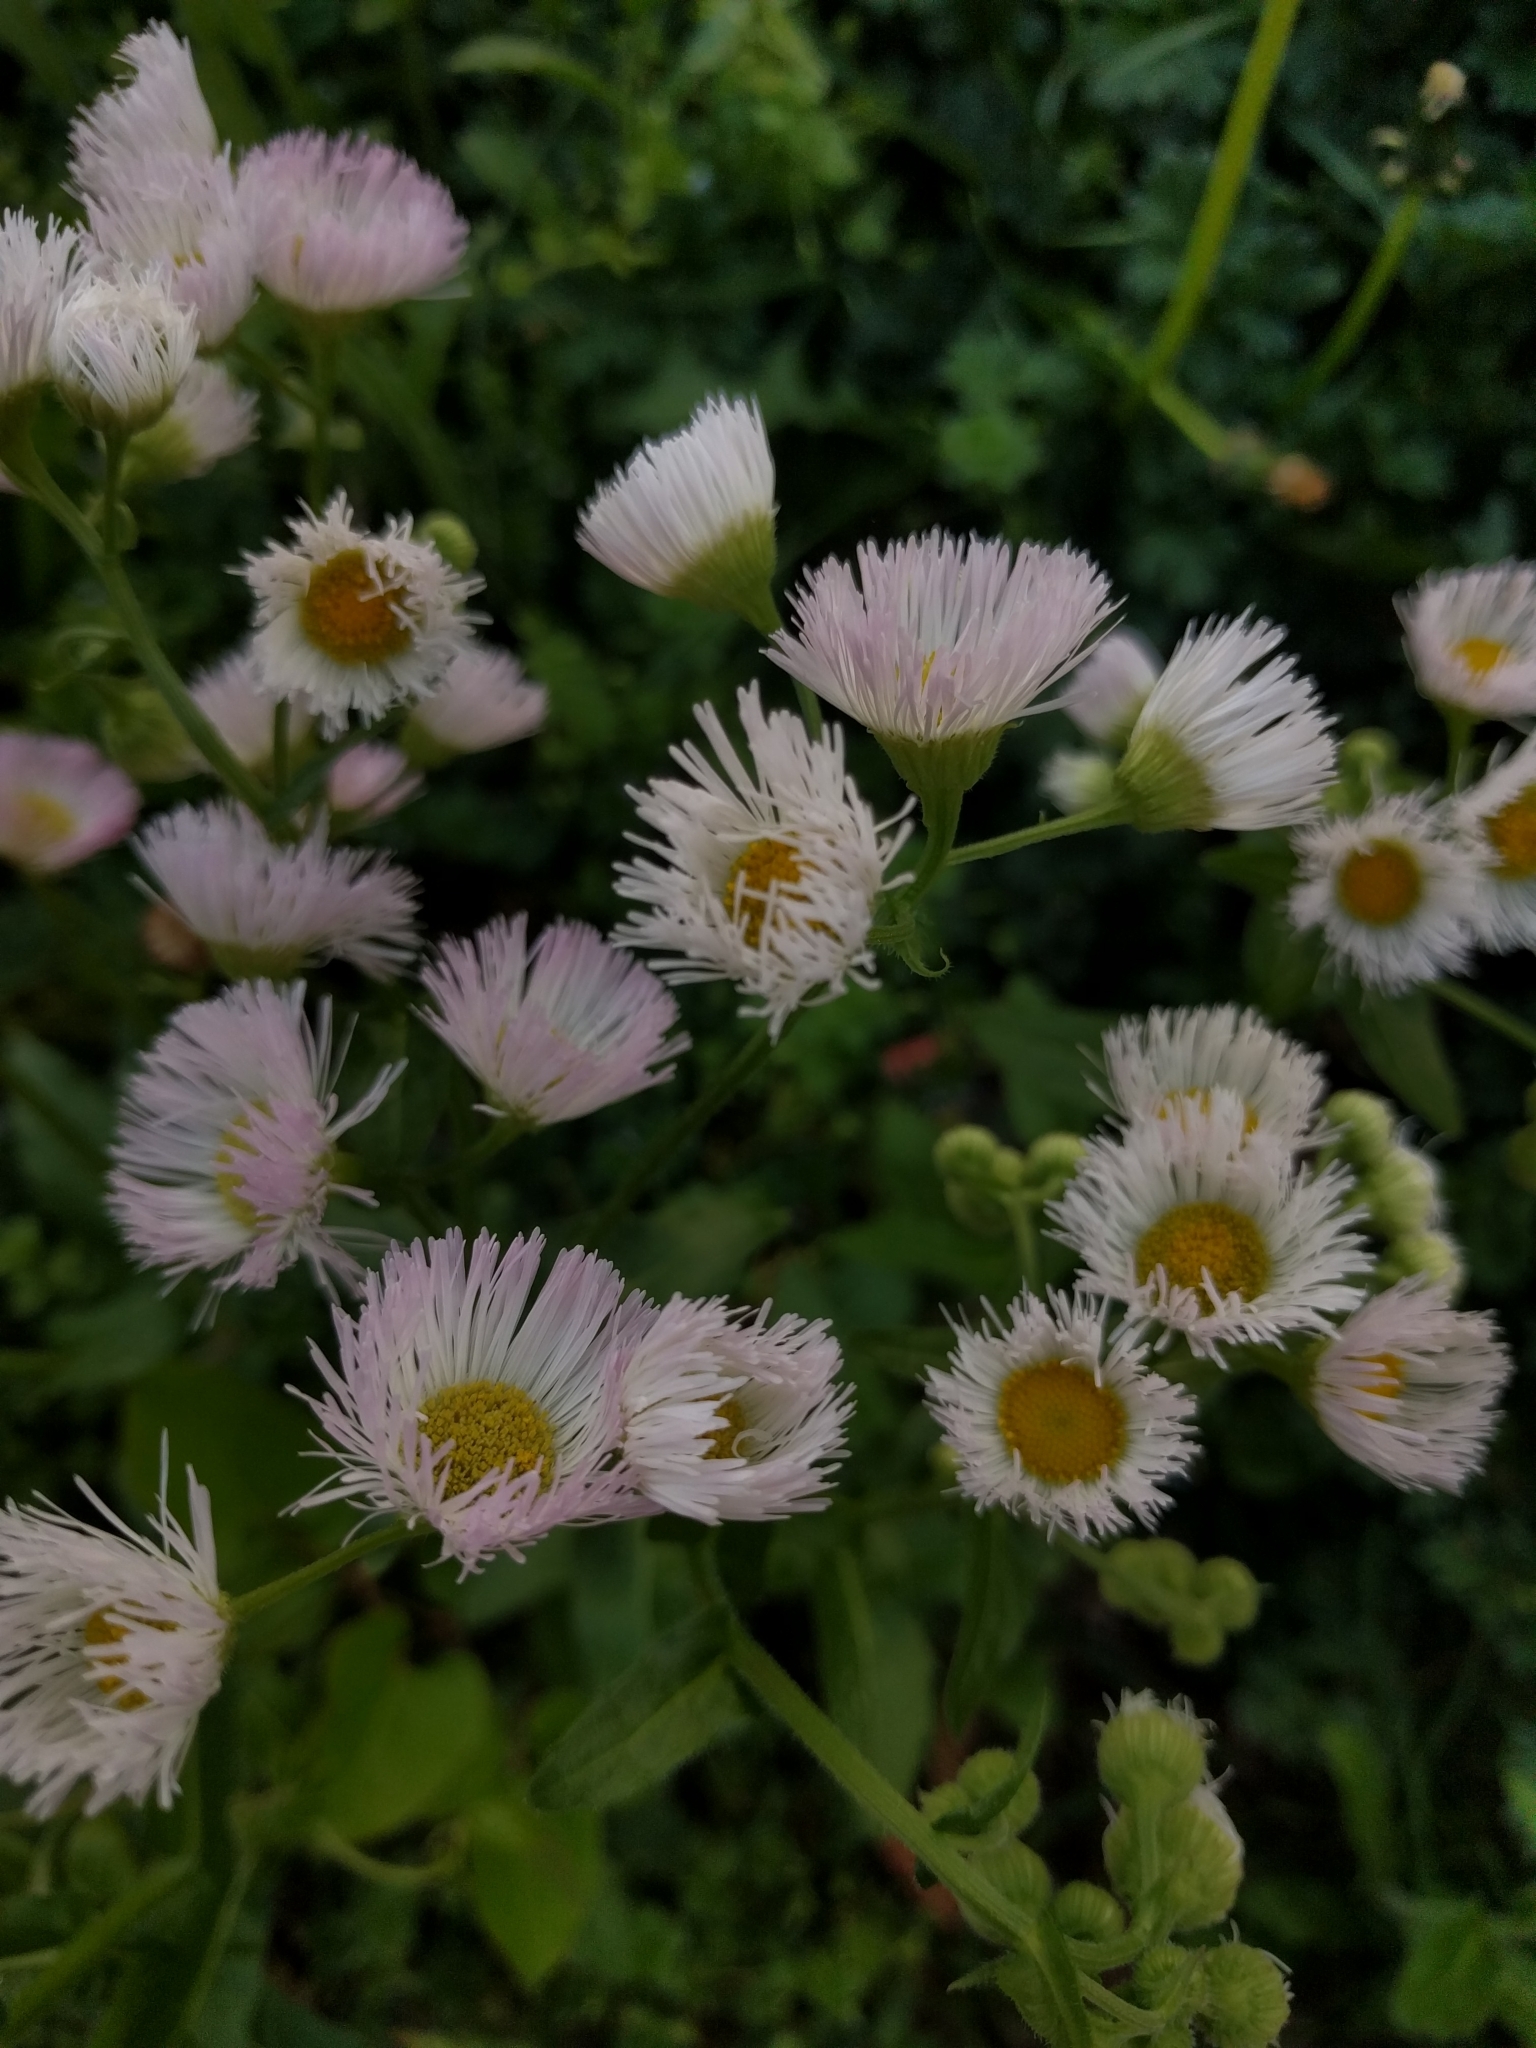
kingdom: Plantae
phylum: Tracheophyta
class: Magnoliopsida
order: Asterales
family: Asteraceae
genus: Erigeron
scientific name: Erigeron philadelphicus
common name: Robin's-plantain
